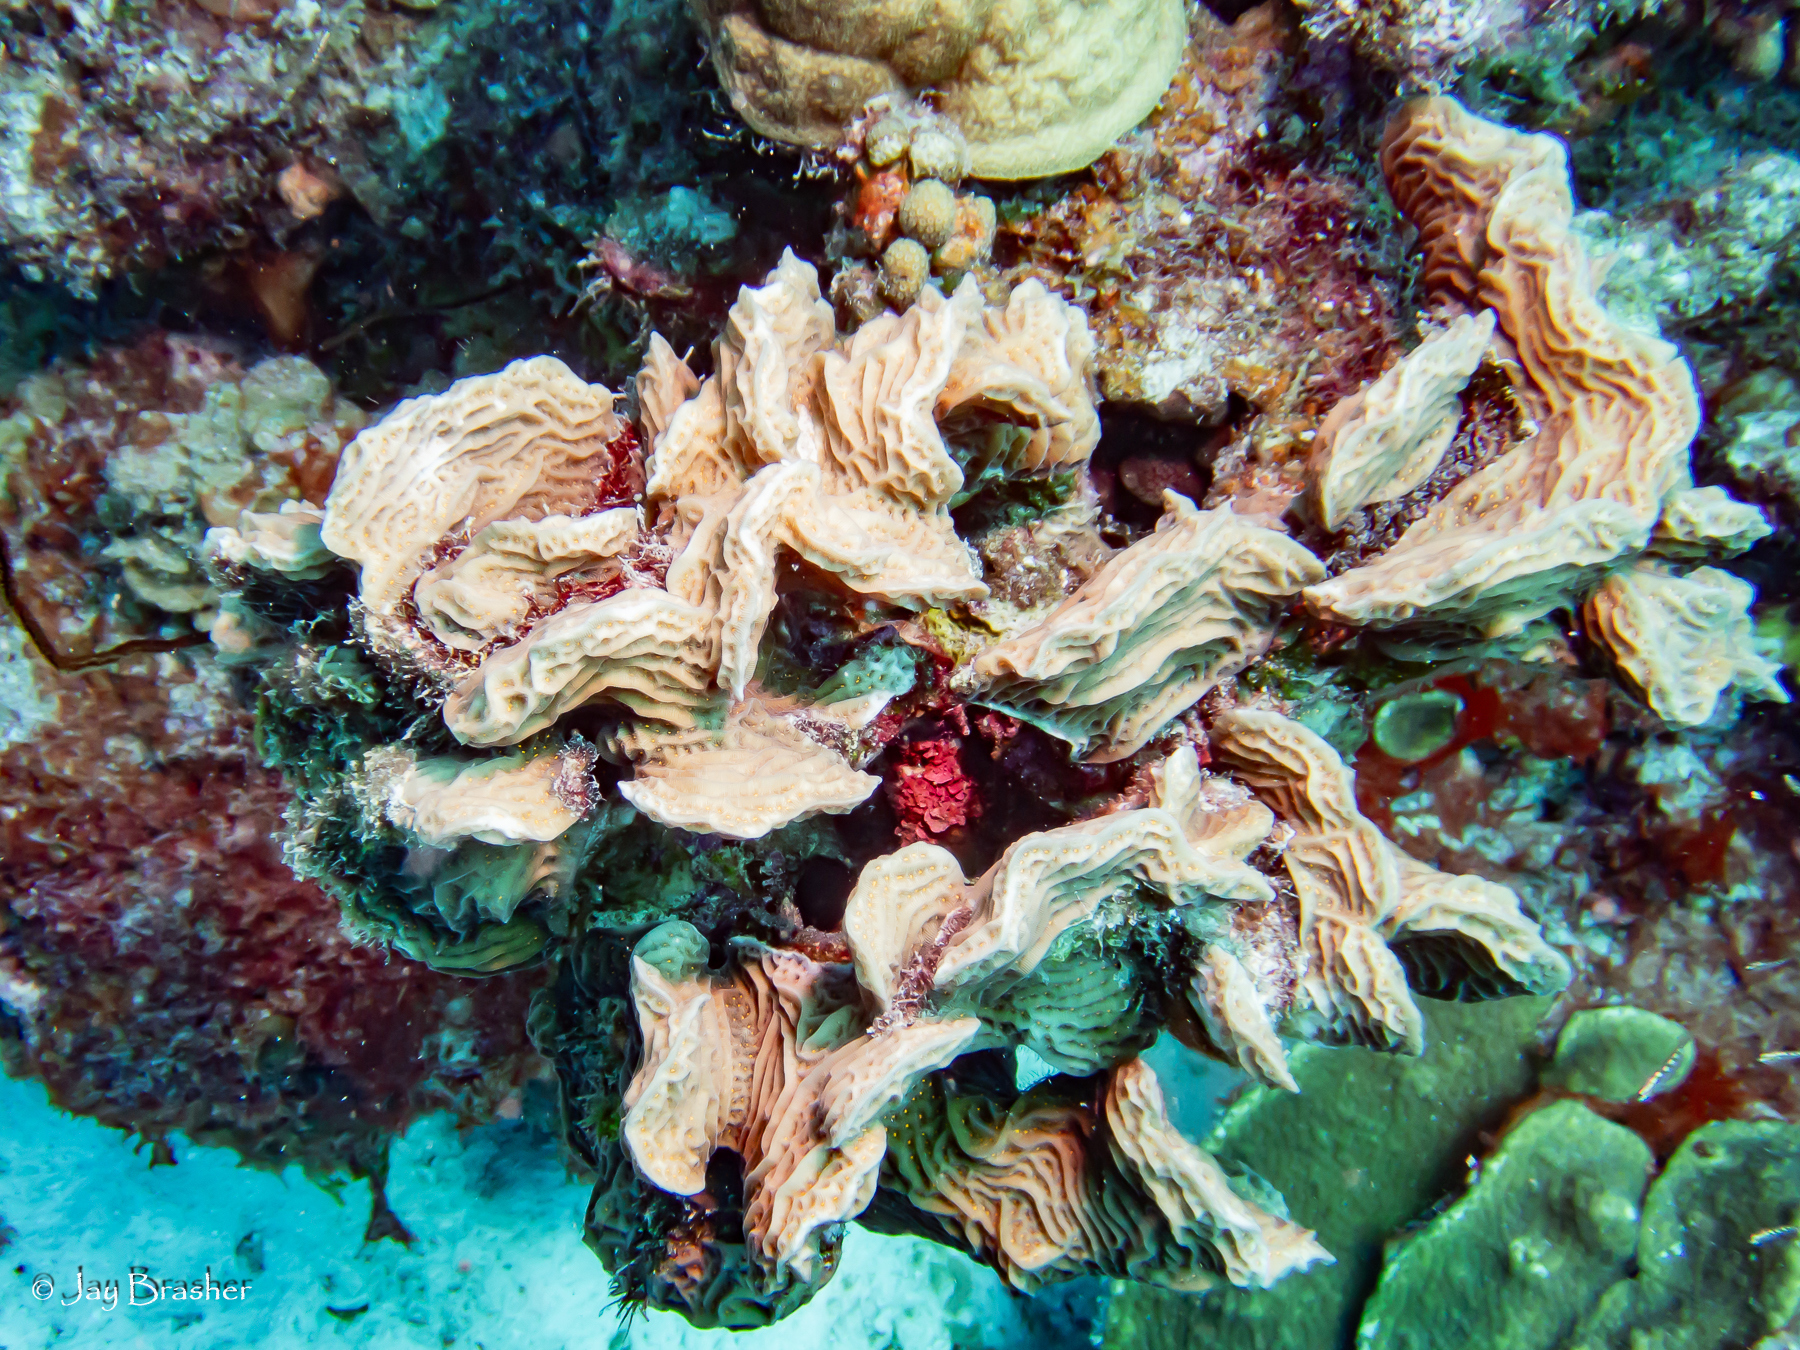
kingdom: Animalia
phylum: Cnidaria
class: Anthozoa
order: Scleractinia
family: Agariciidae
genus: Agaricia
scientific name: Agaricia agaricites
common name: Lettuce coral
